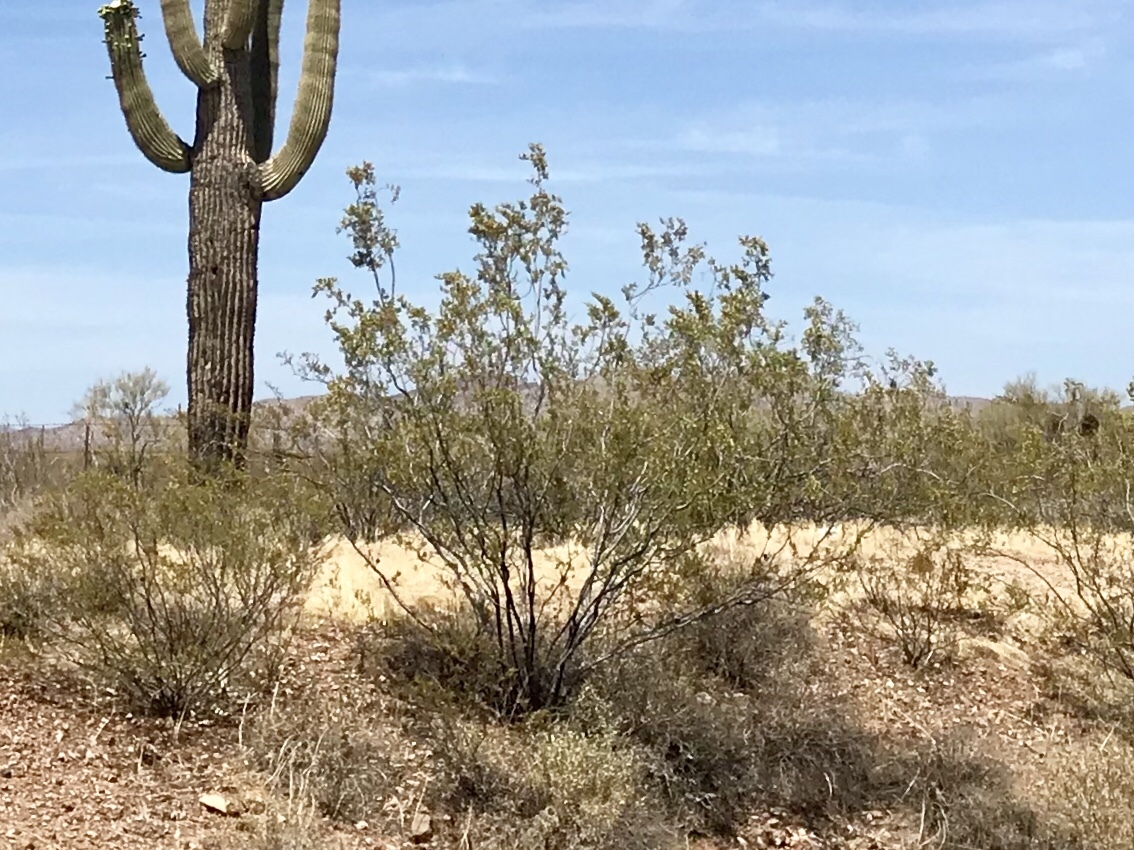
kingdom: Plantae
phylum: Tracheophyta
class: Magnoliopsida
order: Zygophyllales
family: Zygophyllaceae
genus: Larrea
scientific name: Larrea tridentata
